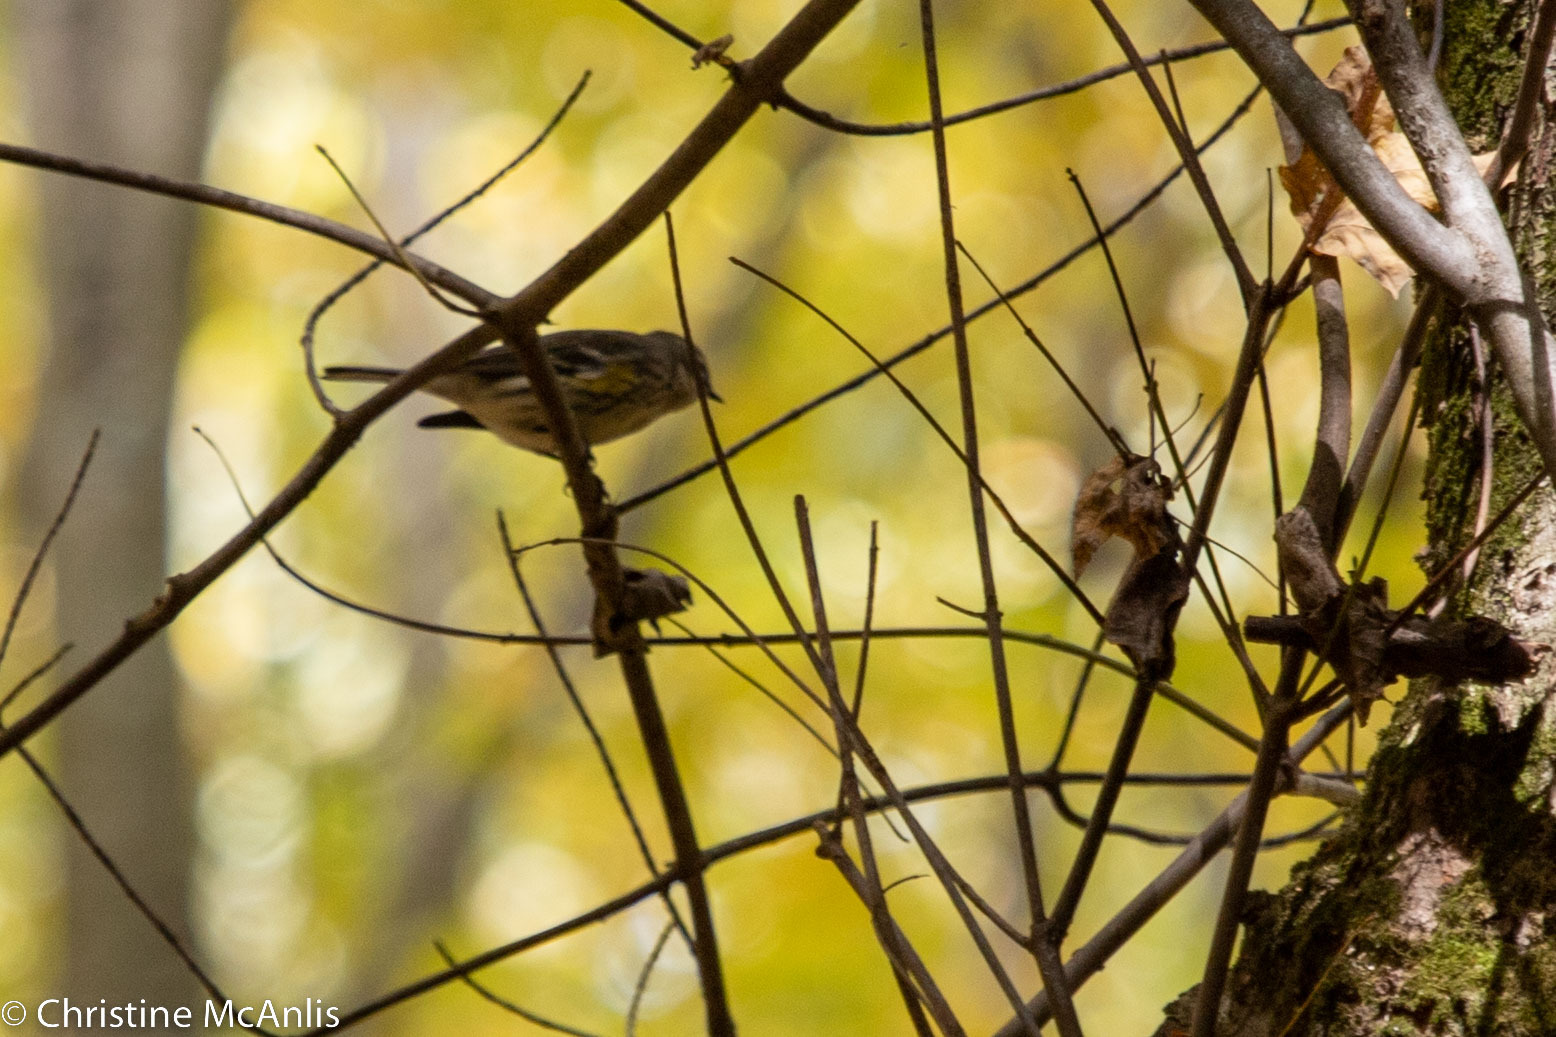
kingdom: Animalia
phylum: Chordata
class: Aves
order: Passeriformes
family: Parulidae
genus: Setophaga
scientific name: Setophaga tigrina
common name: Cape may warbler
